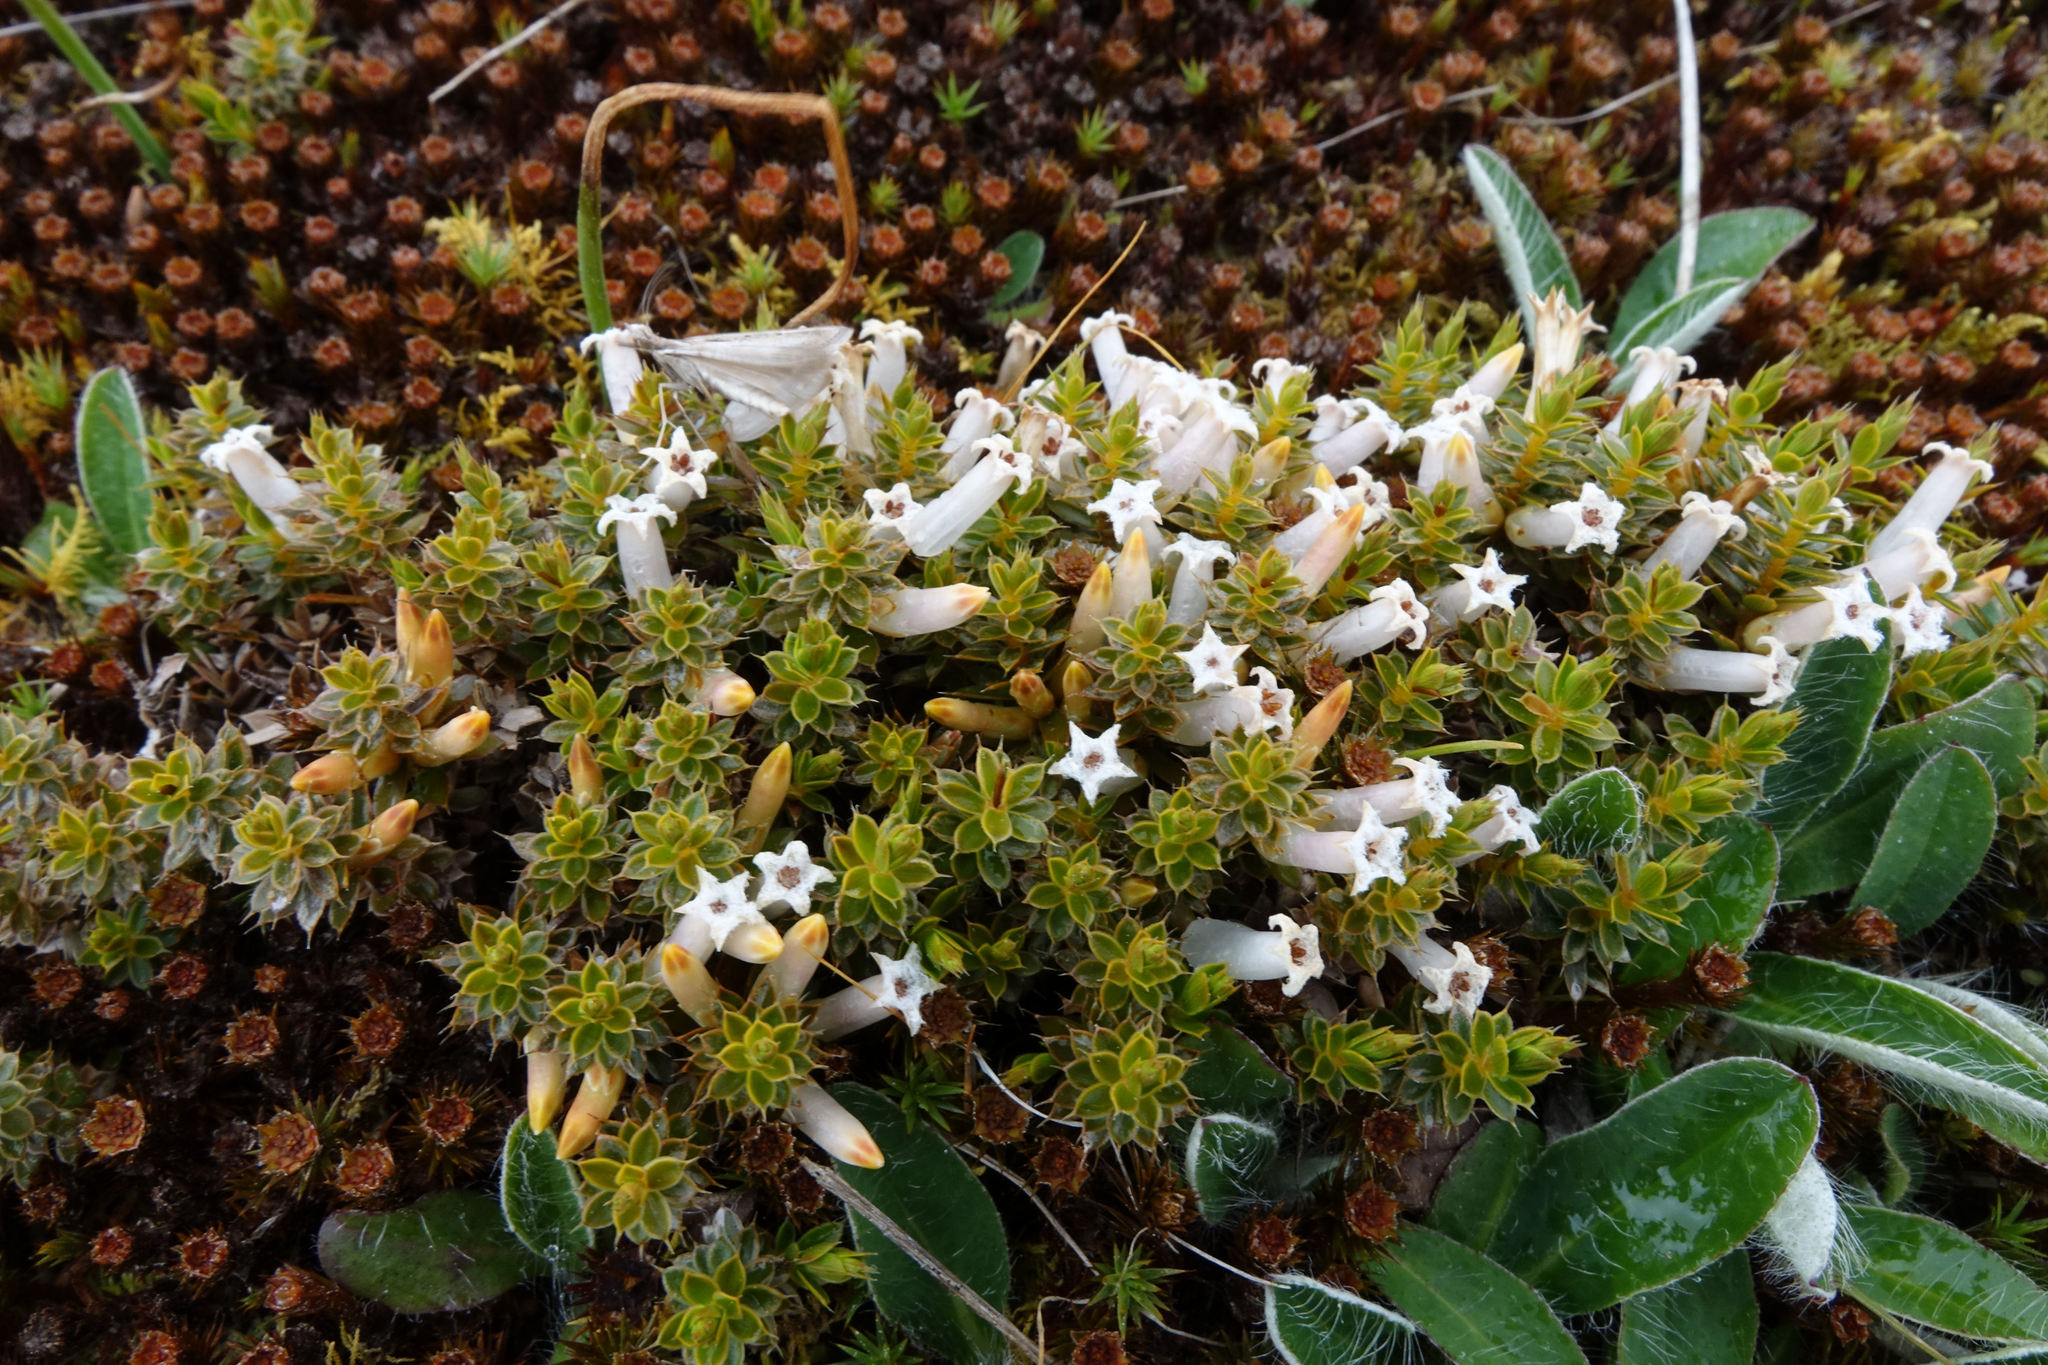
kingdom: Plantae
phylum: Tracheophyta
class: Magnoliopsida
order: Ericales
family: Ericaceae
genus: Styphelia
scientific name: Styphelia nesophila
